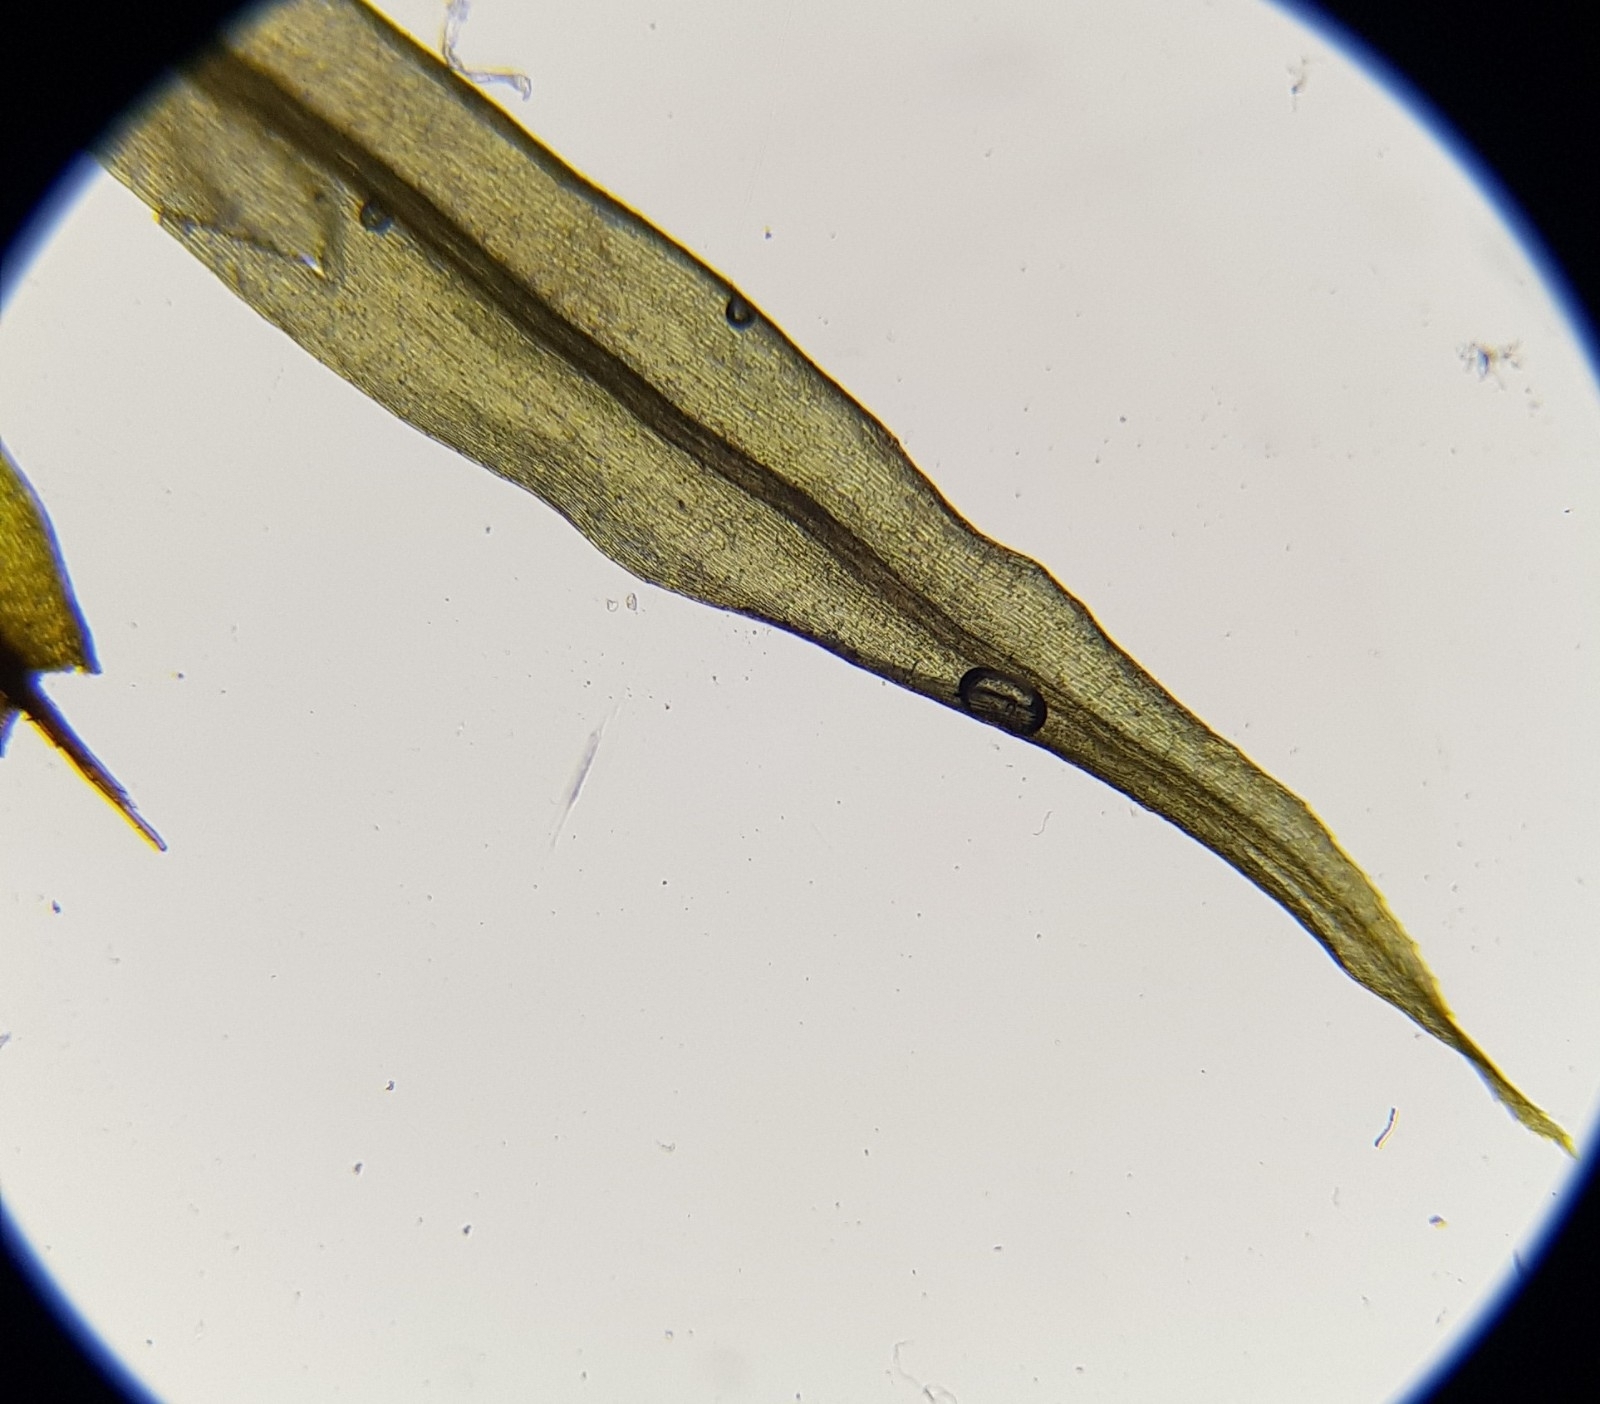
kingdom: Plantae
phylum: Bryophyta
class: Bryopsida
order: Bryales
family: Mniaceae
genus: Pohlia
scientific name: Pohlia nutans
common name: Nodding thread-moss
